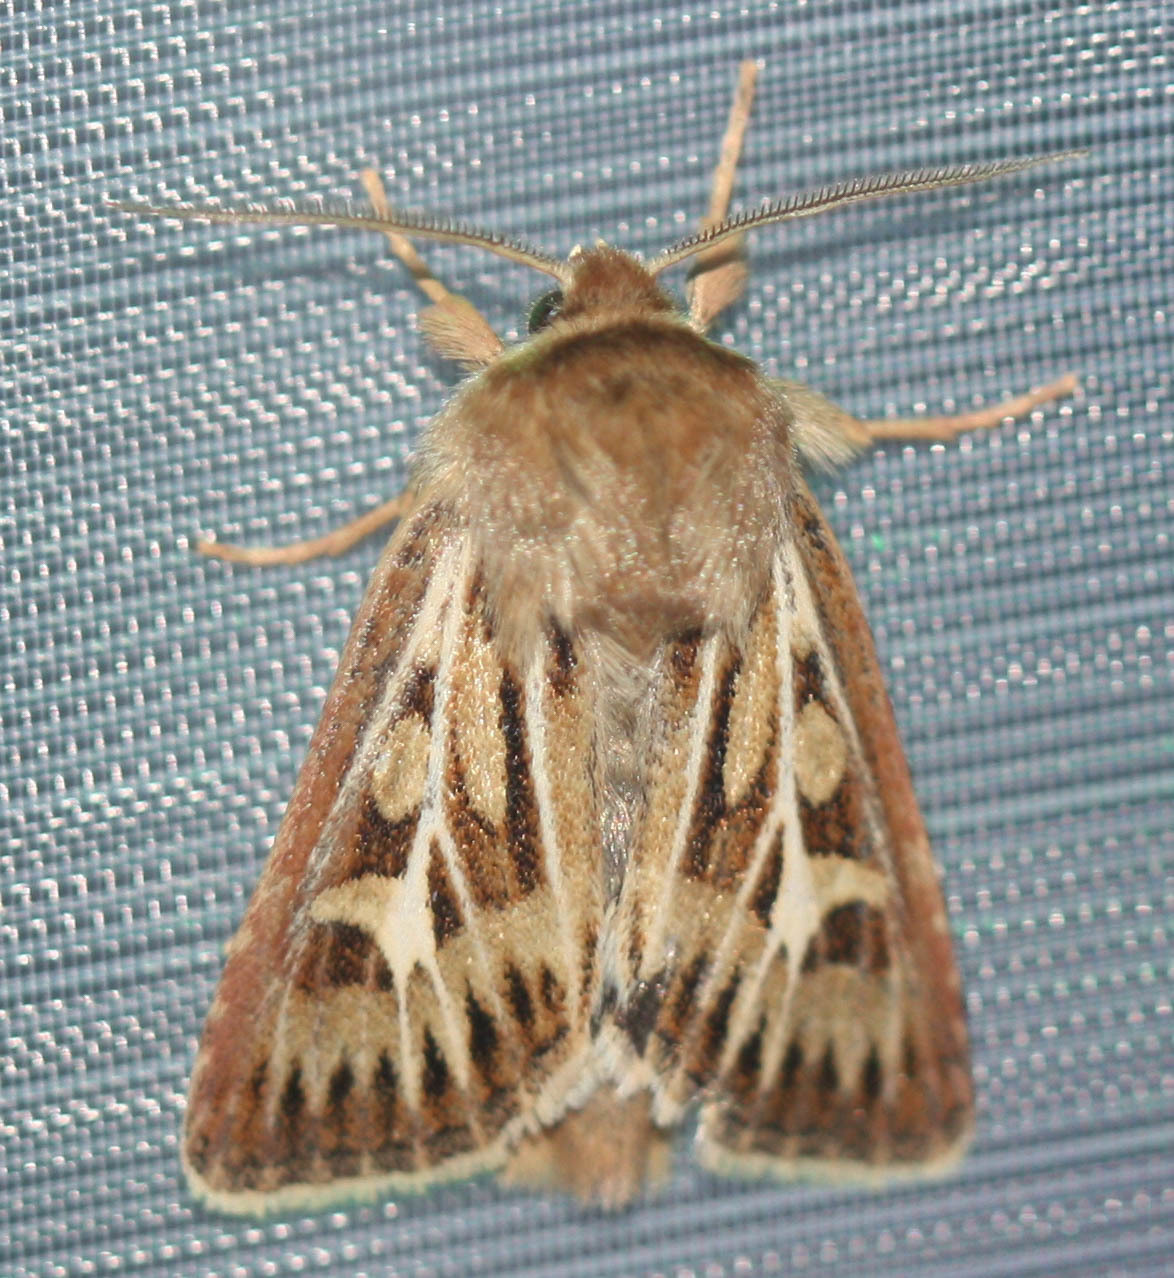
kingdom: Animalia
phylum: Arthropoda
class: Insecta
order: Lepidoptera
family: Noctuidae
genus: Cerapteryx
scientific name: Cerapteryx graminis
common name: Antler moth
